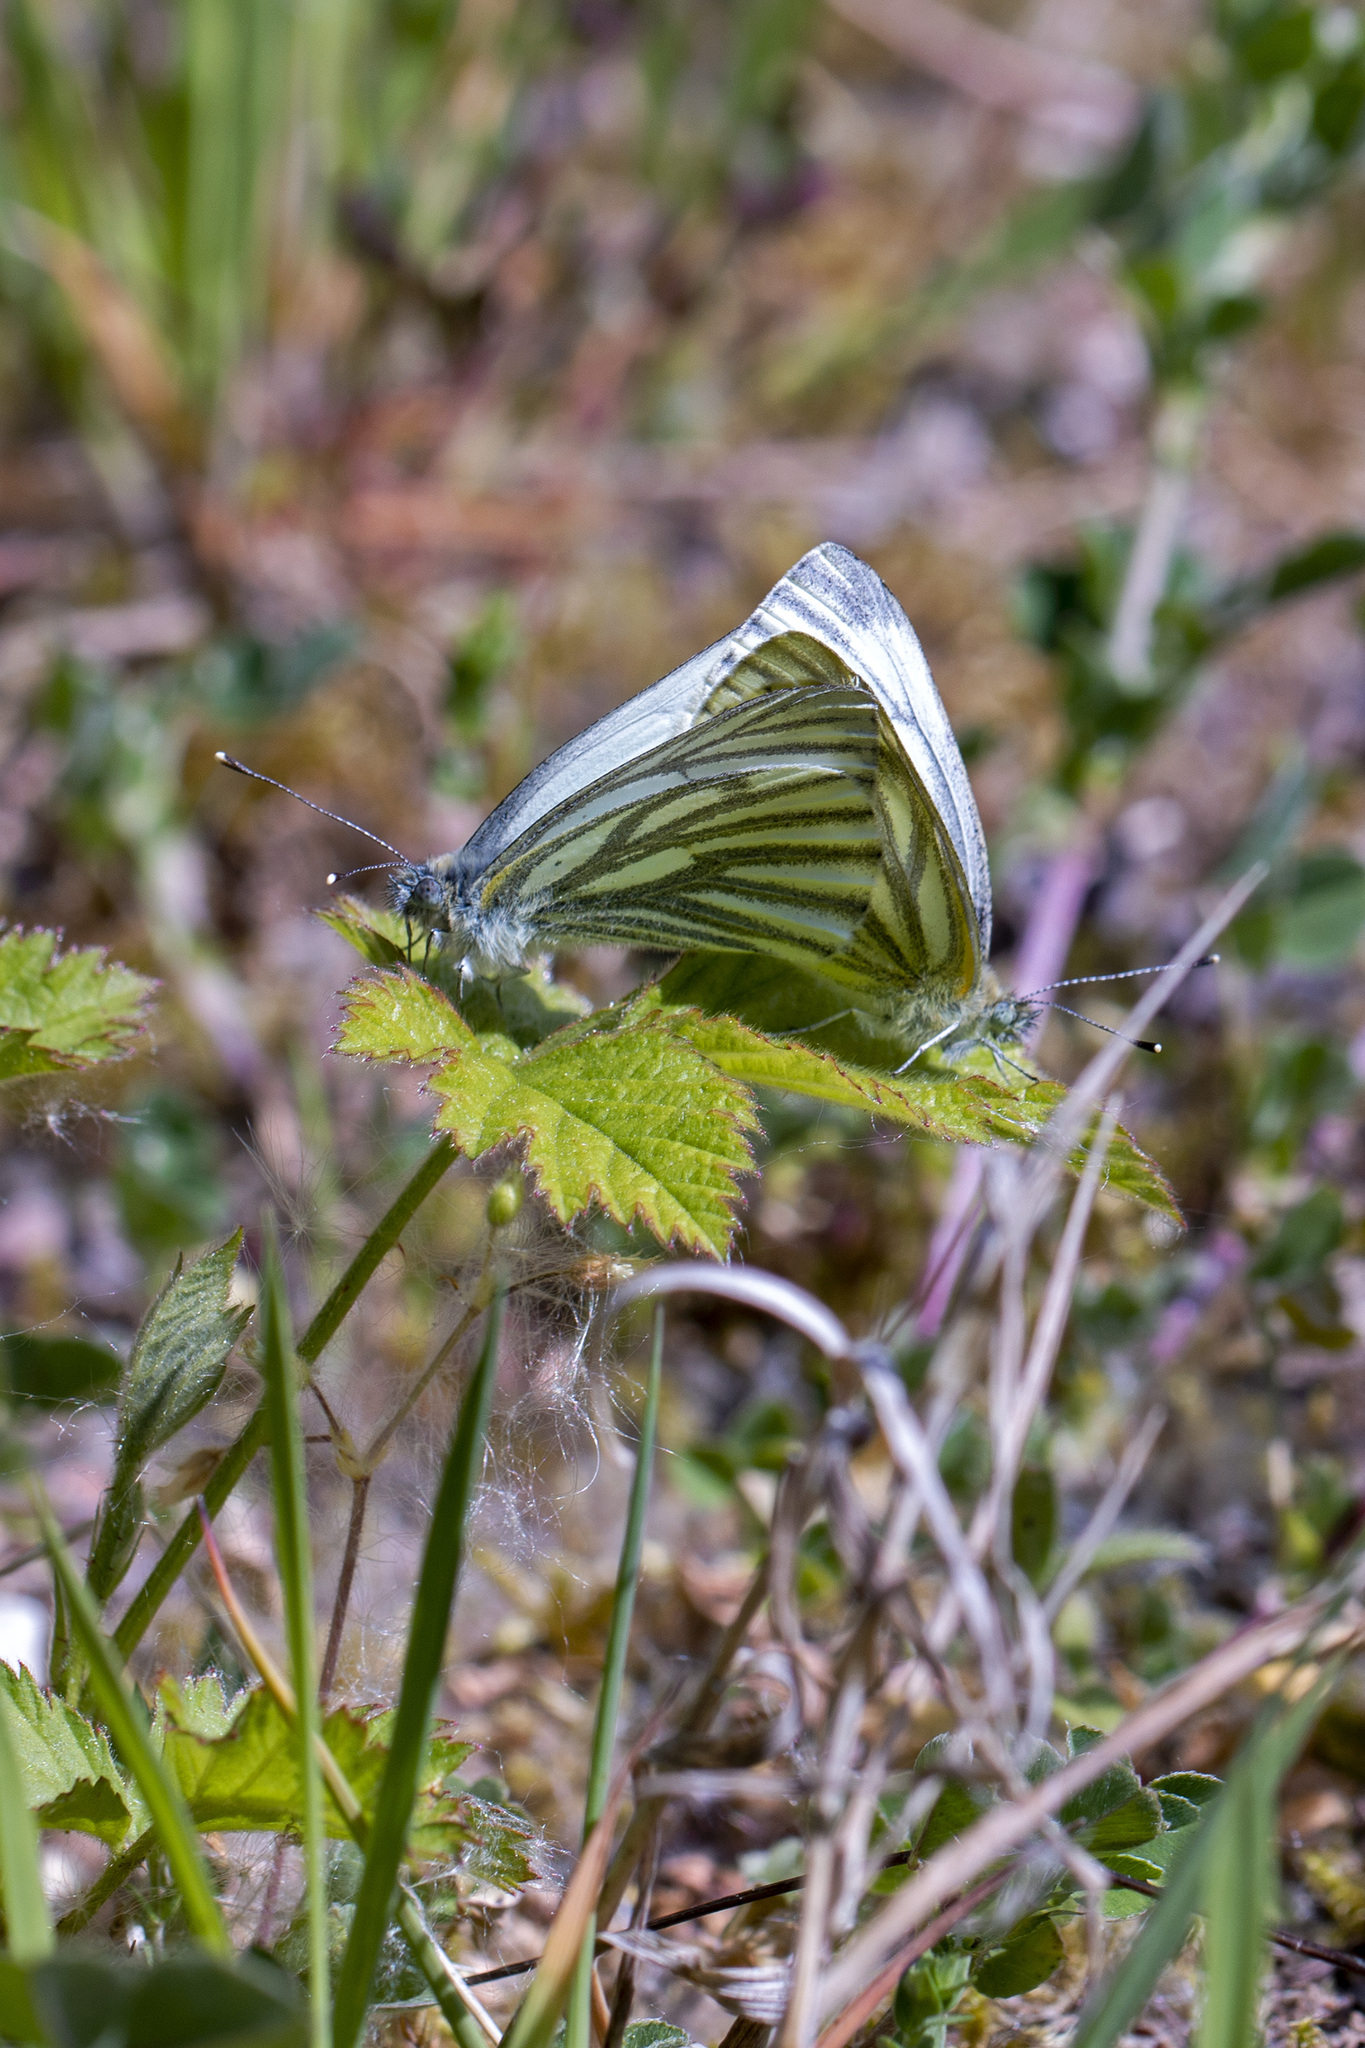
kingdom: Animalia
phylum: Arthropoda
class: Insecta
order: Lepidoptera
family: Pieridae
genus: Pieris
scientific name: Pieris napi
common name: Green-veined white
